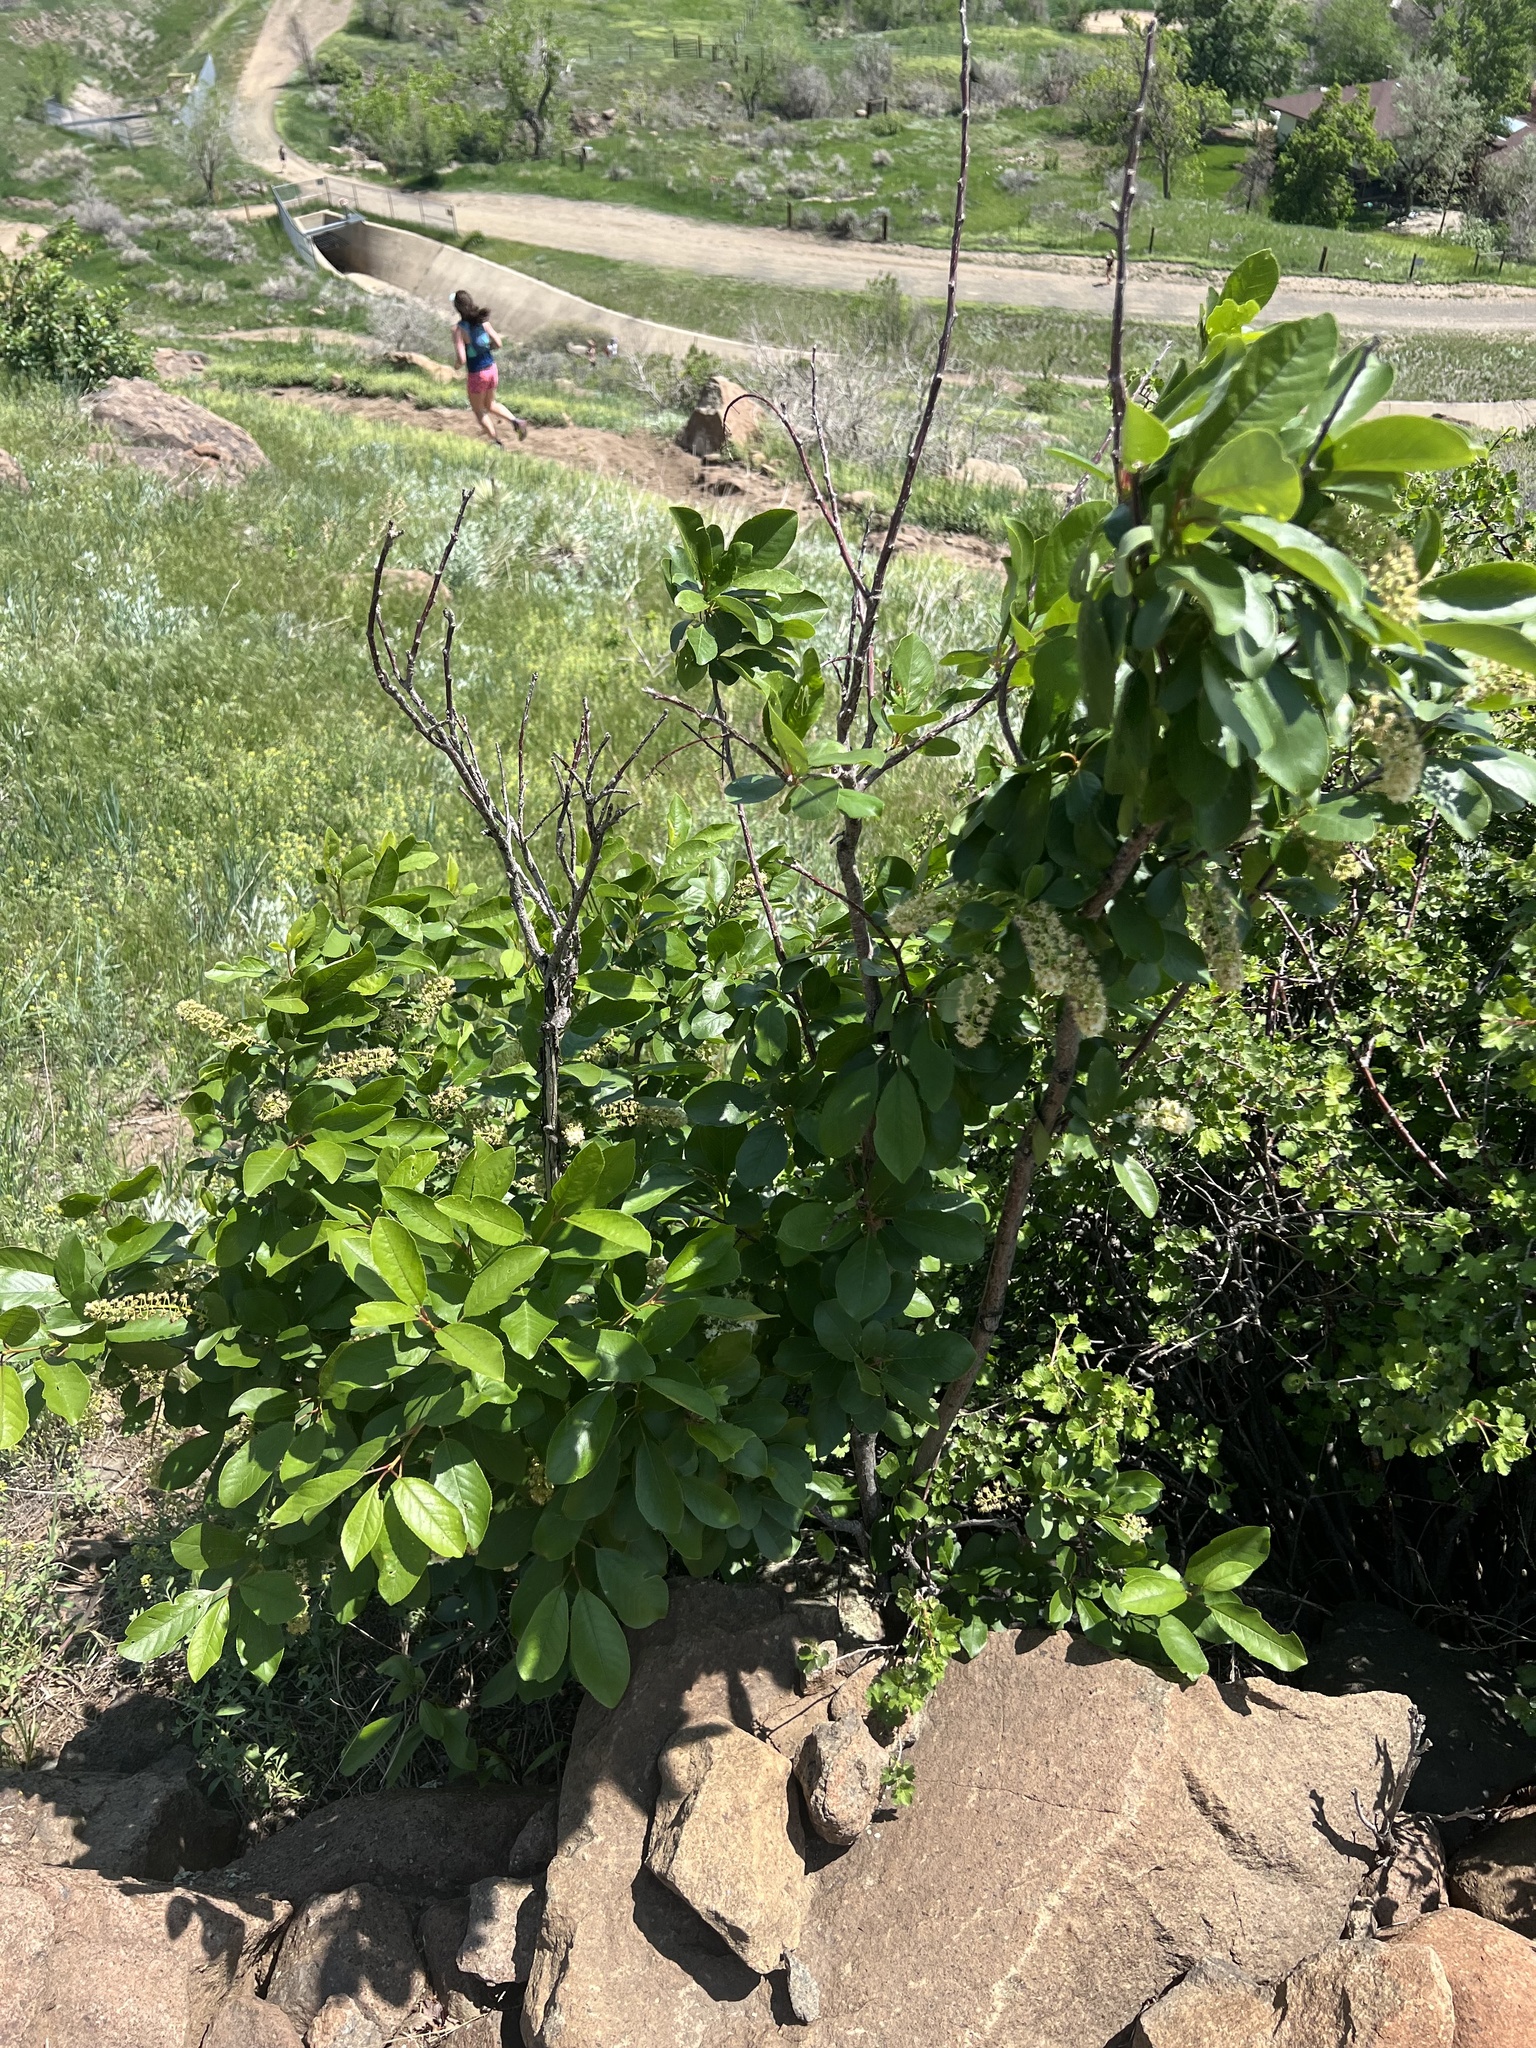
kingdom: Plantae
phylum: Tracheophyta
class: Magnoliopsida
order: Rosales
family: Rosaceae
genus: Prunus
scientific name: Prunus virginiana
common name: Chokecherry
